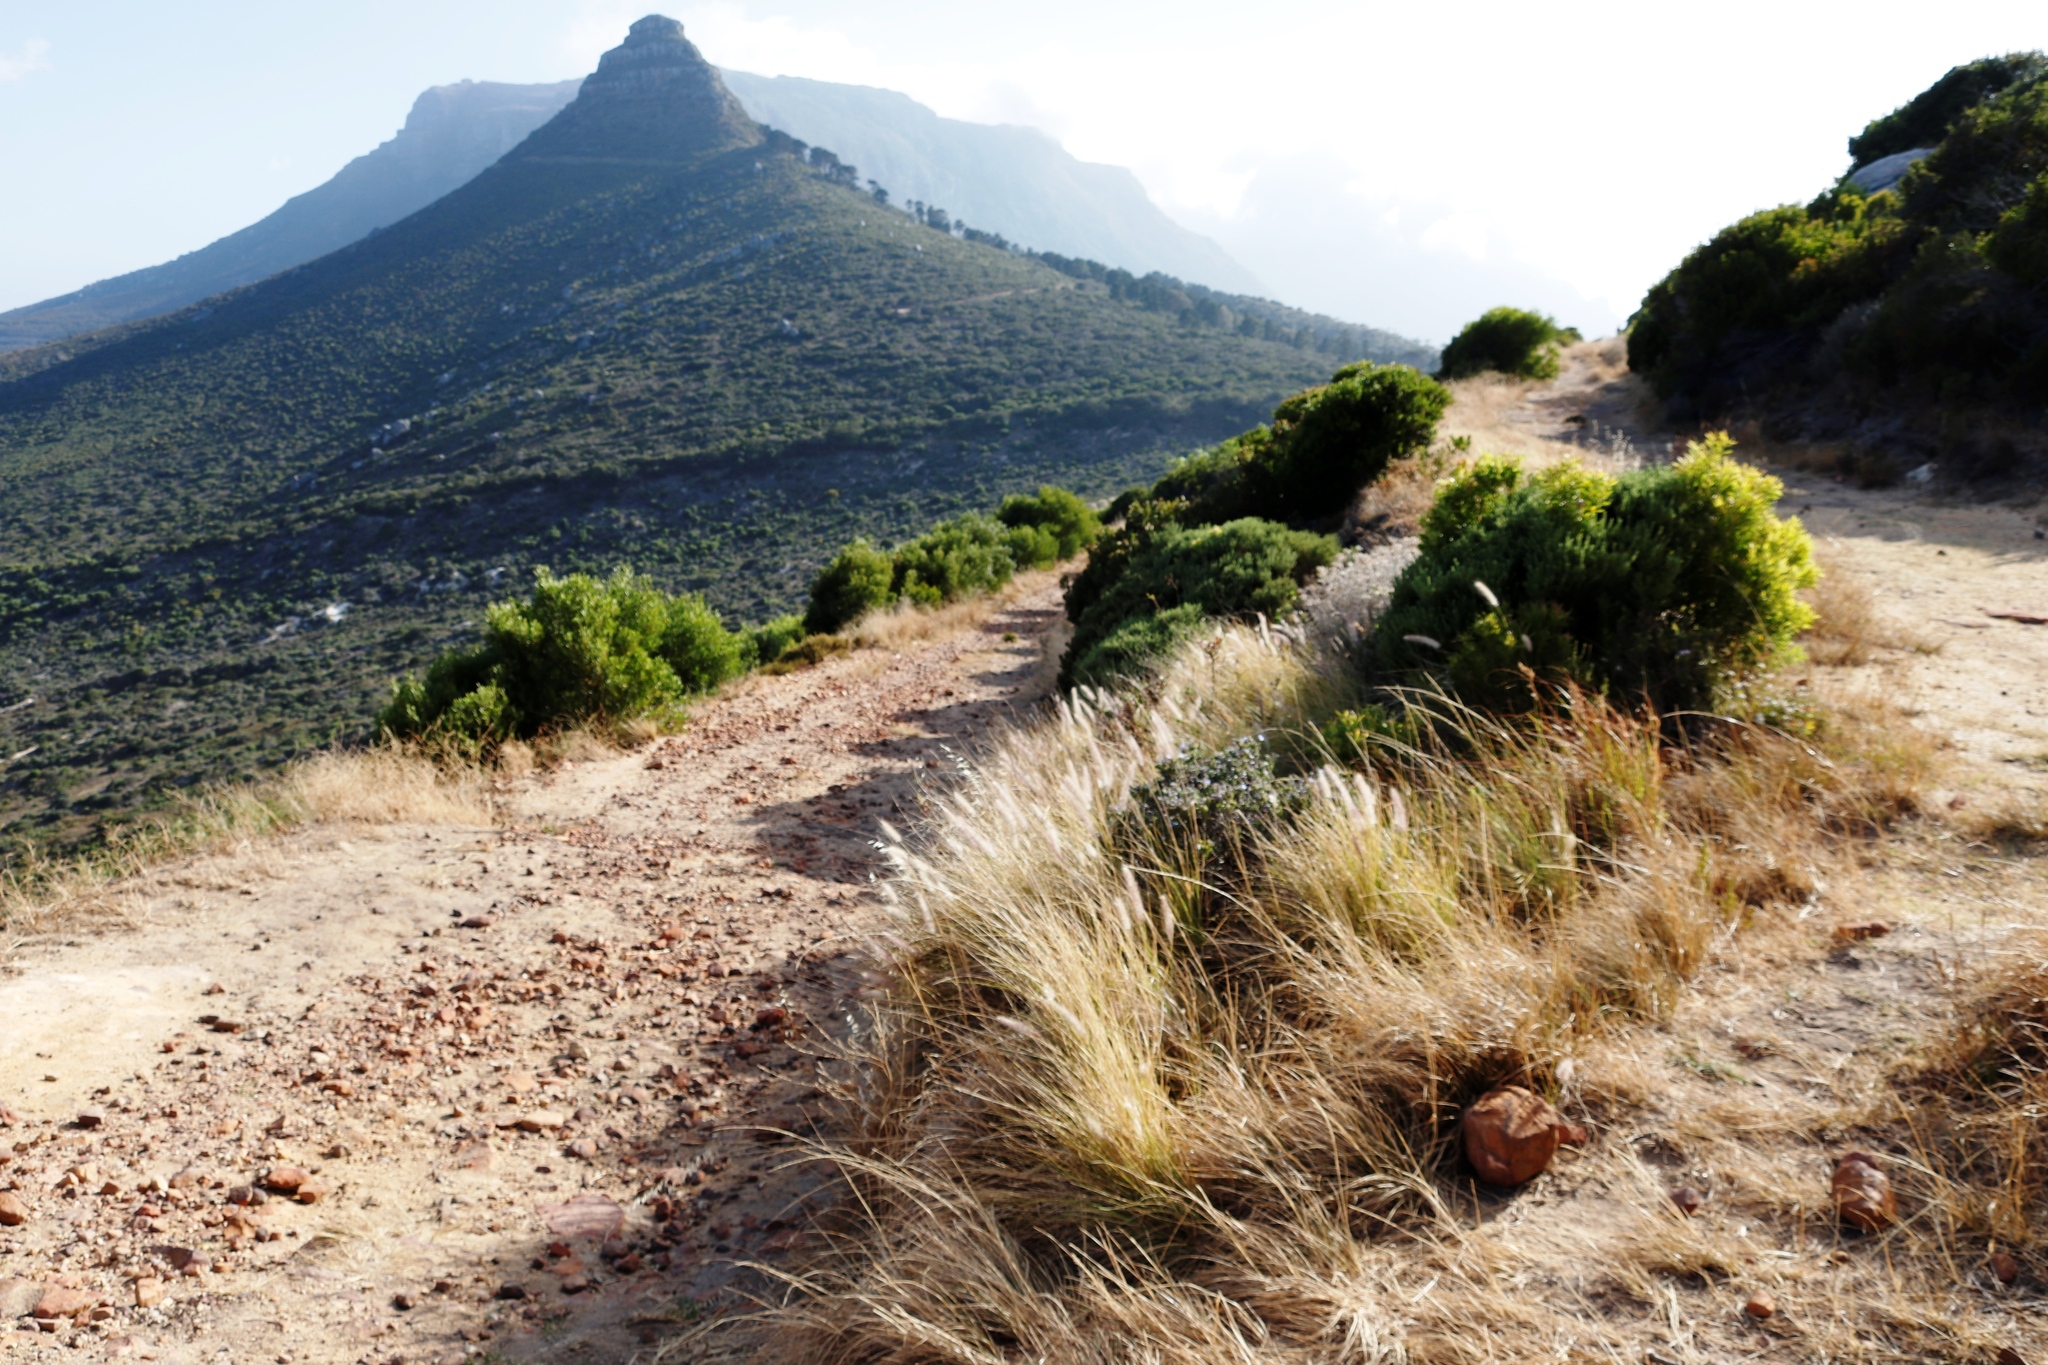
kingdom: Plantae
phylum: Tracheophyta
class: Liliopsida
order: Poales
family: Poaceae
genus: Cenchrus
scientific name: Cenchrus setaceus
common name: Crimson fountaingrass
